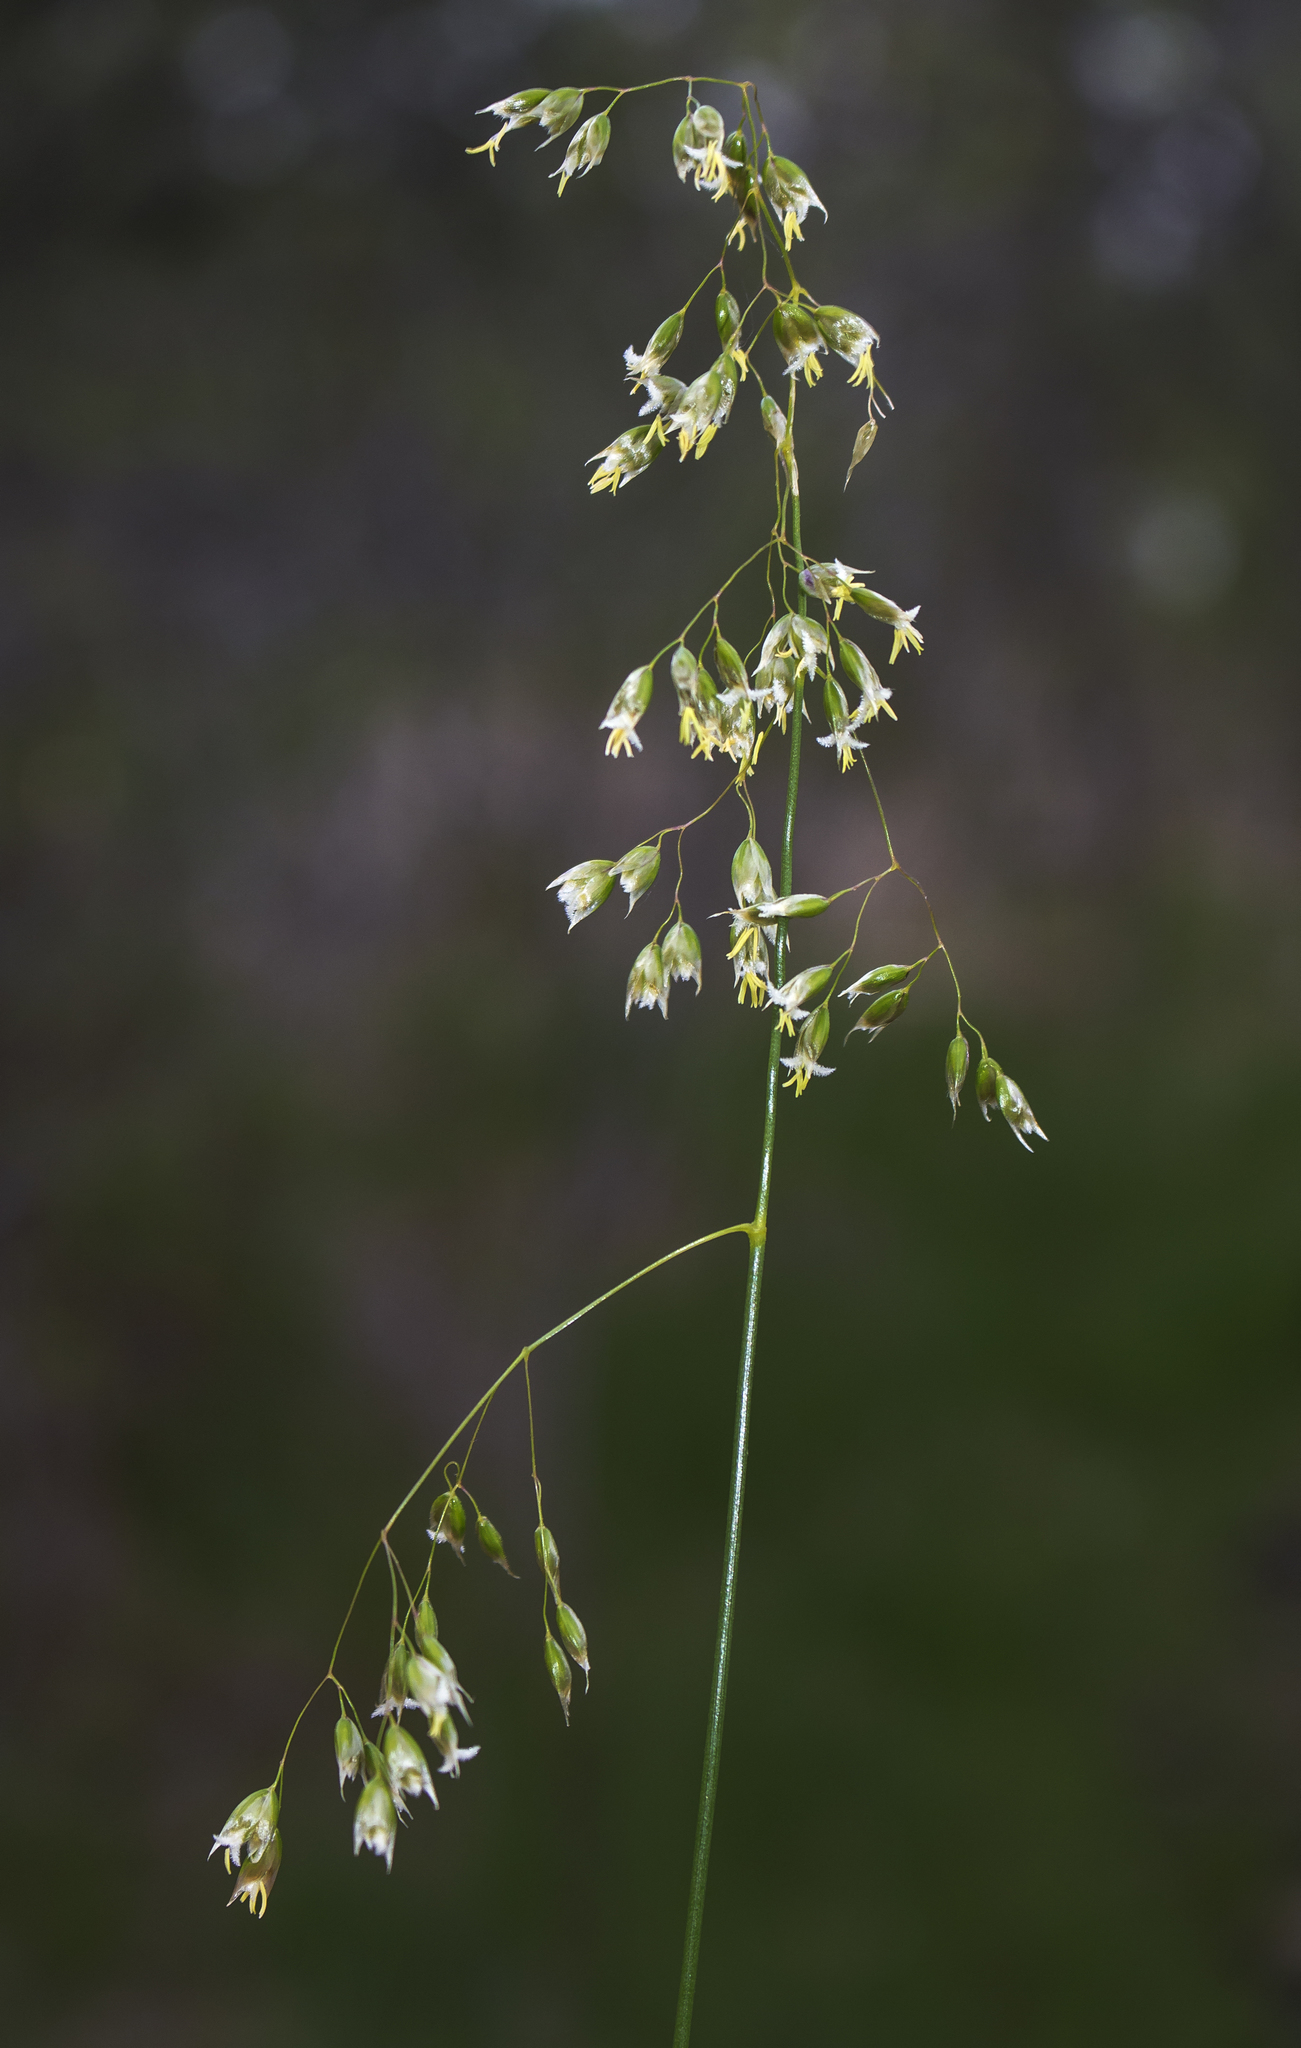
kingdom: Plantae
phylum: Tracheophyta
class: Liliopsida
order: Poales
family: Poaceae
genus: Anthoxanthum
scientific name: Anthoxanthum nitens
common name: Holy grass
